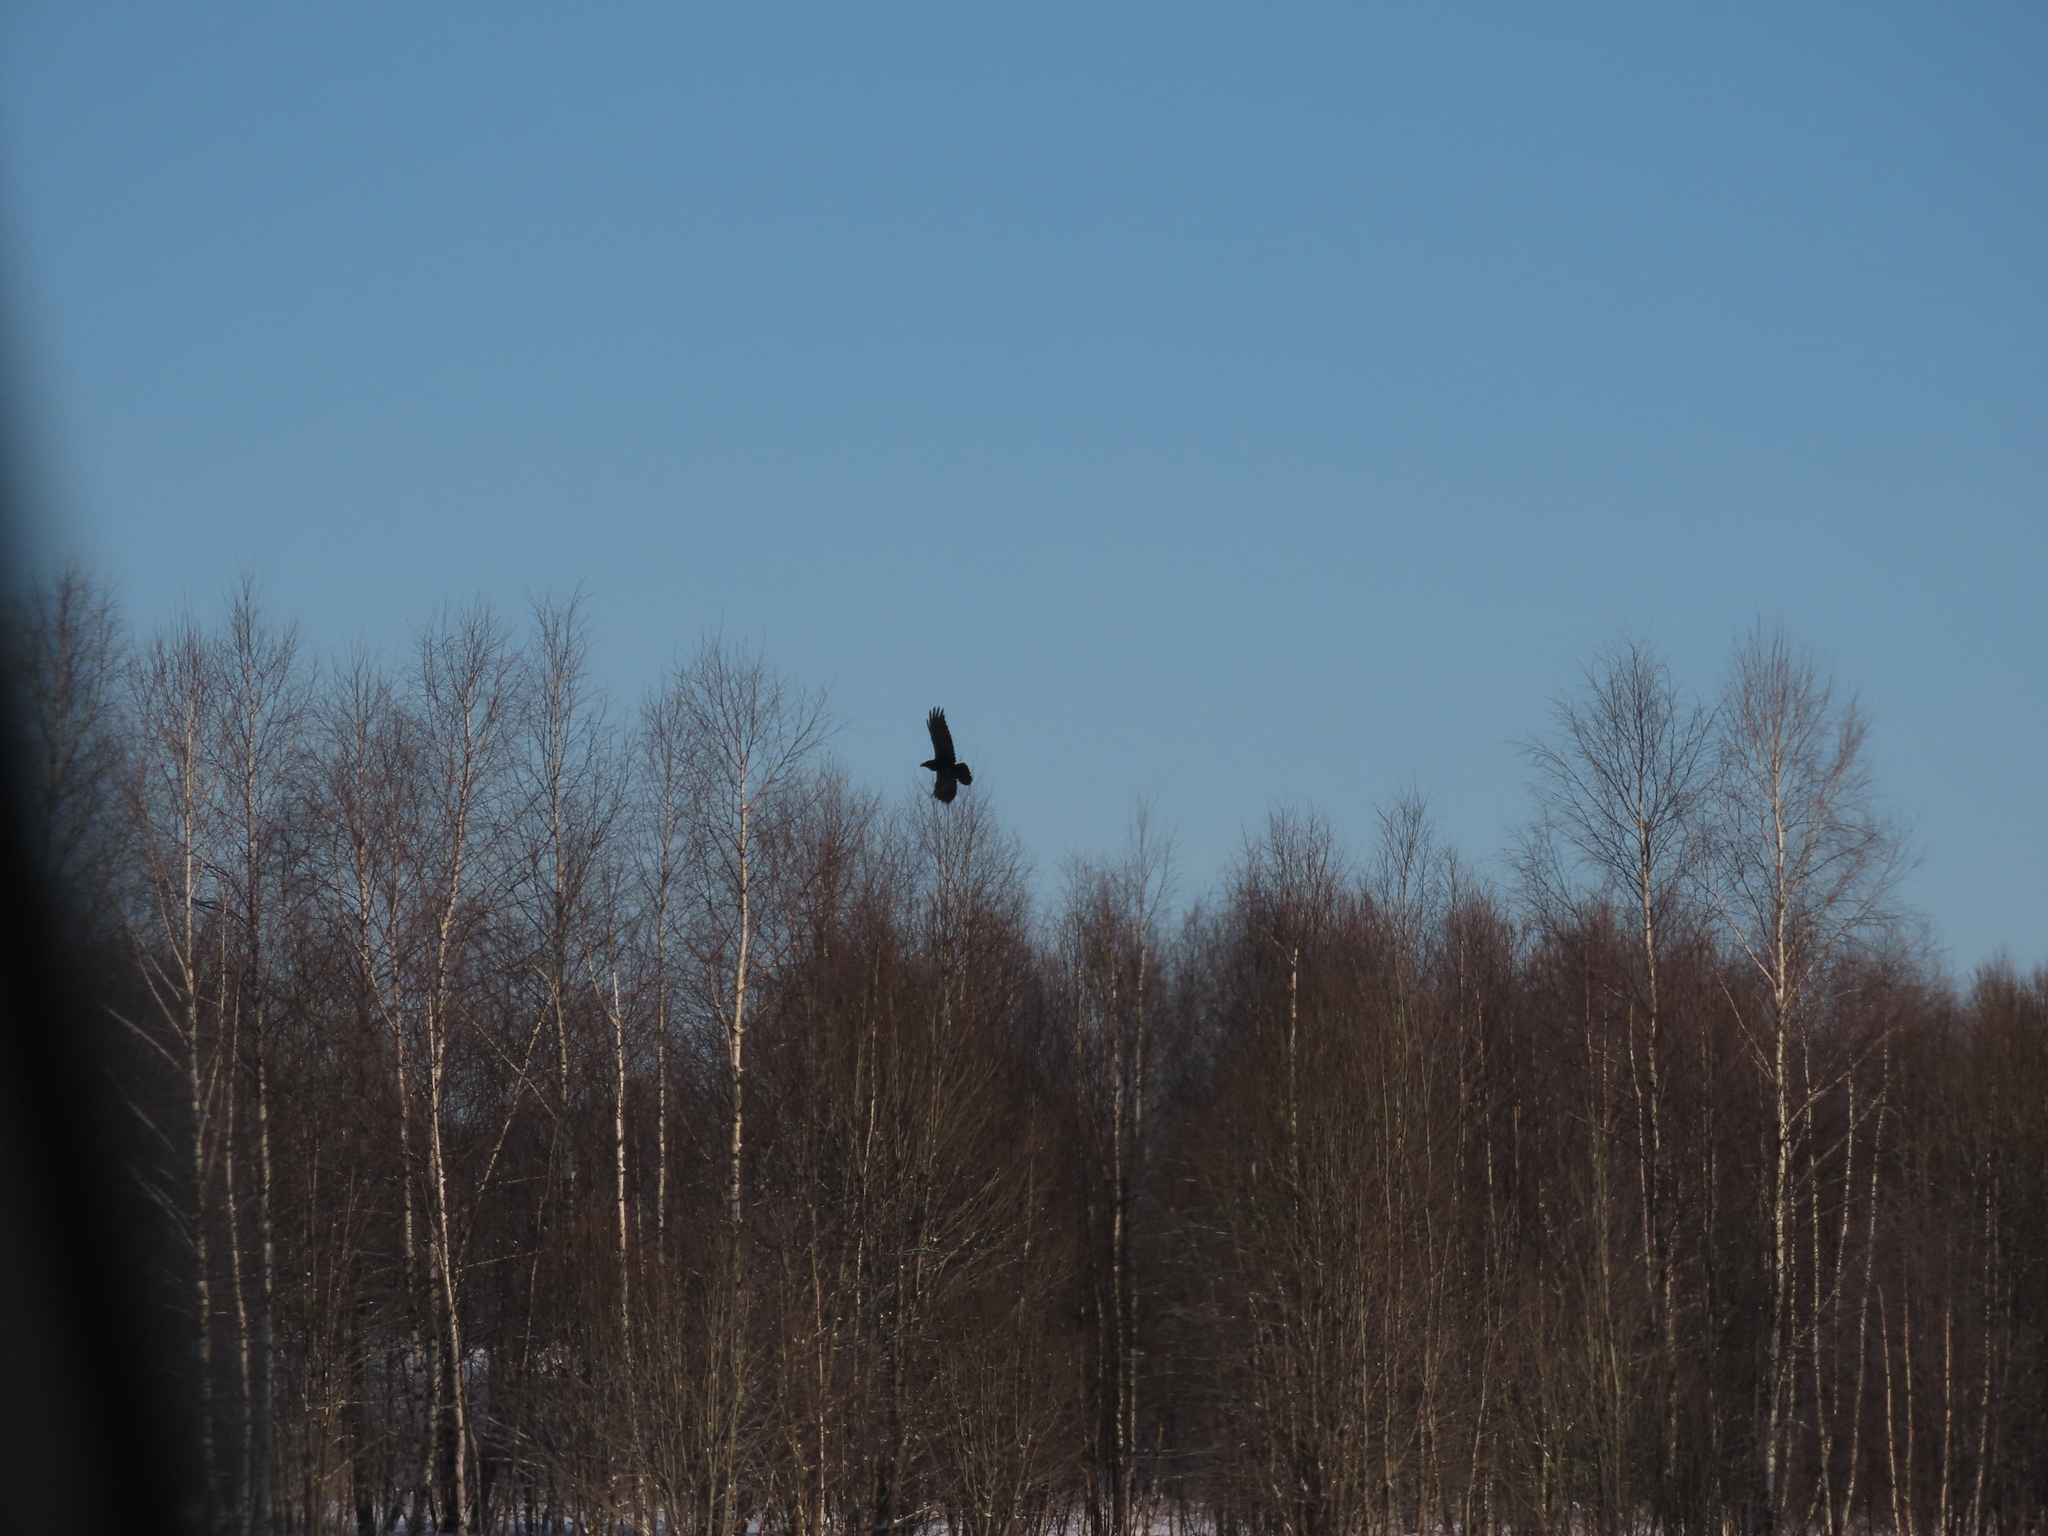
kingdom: Animalia
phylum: Chordata
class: Aves
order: Passeriformes
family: Corvidae
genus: Corvus
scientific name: Corvus corax
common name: Common raven
